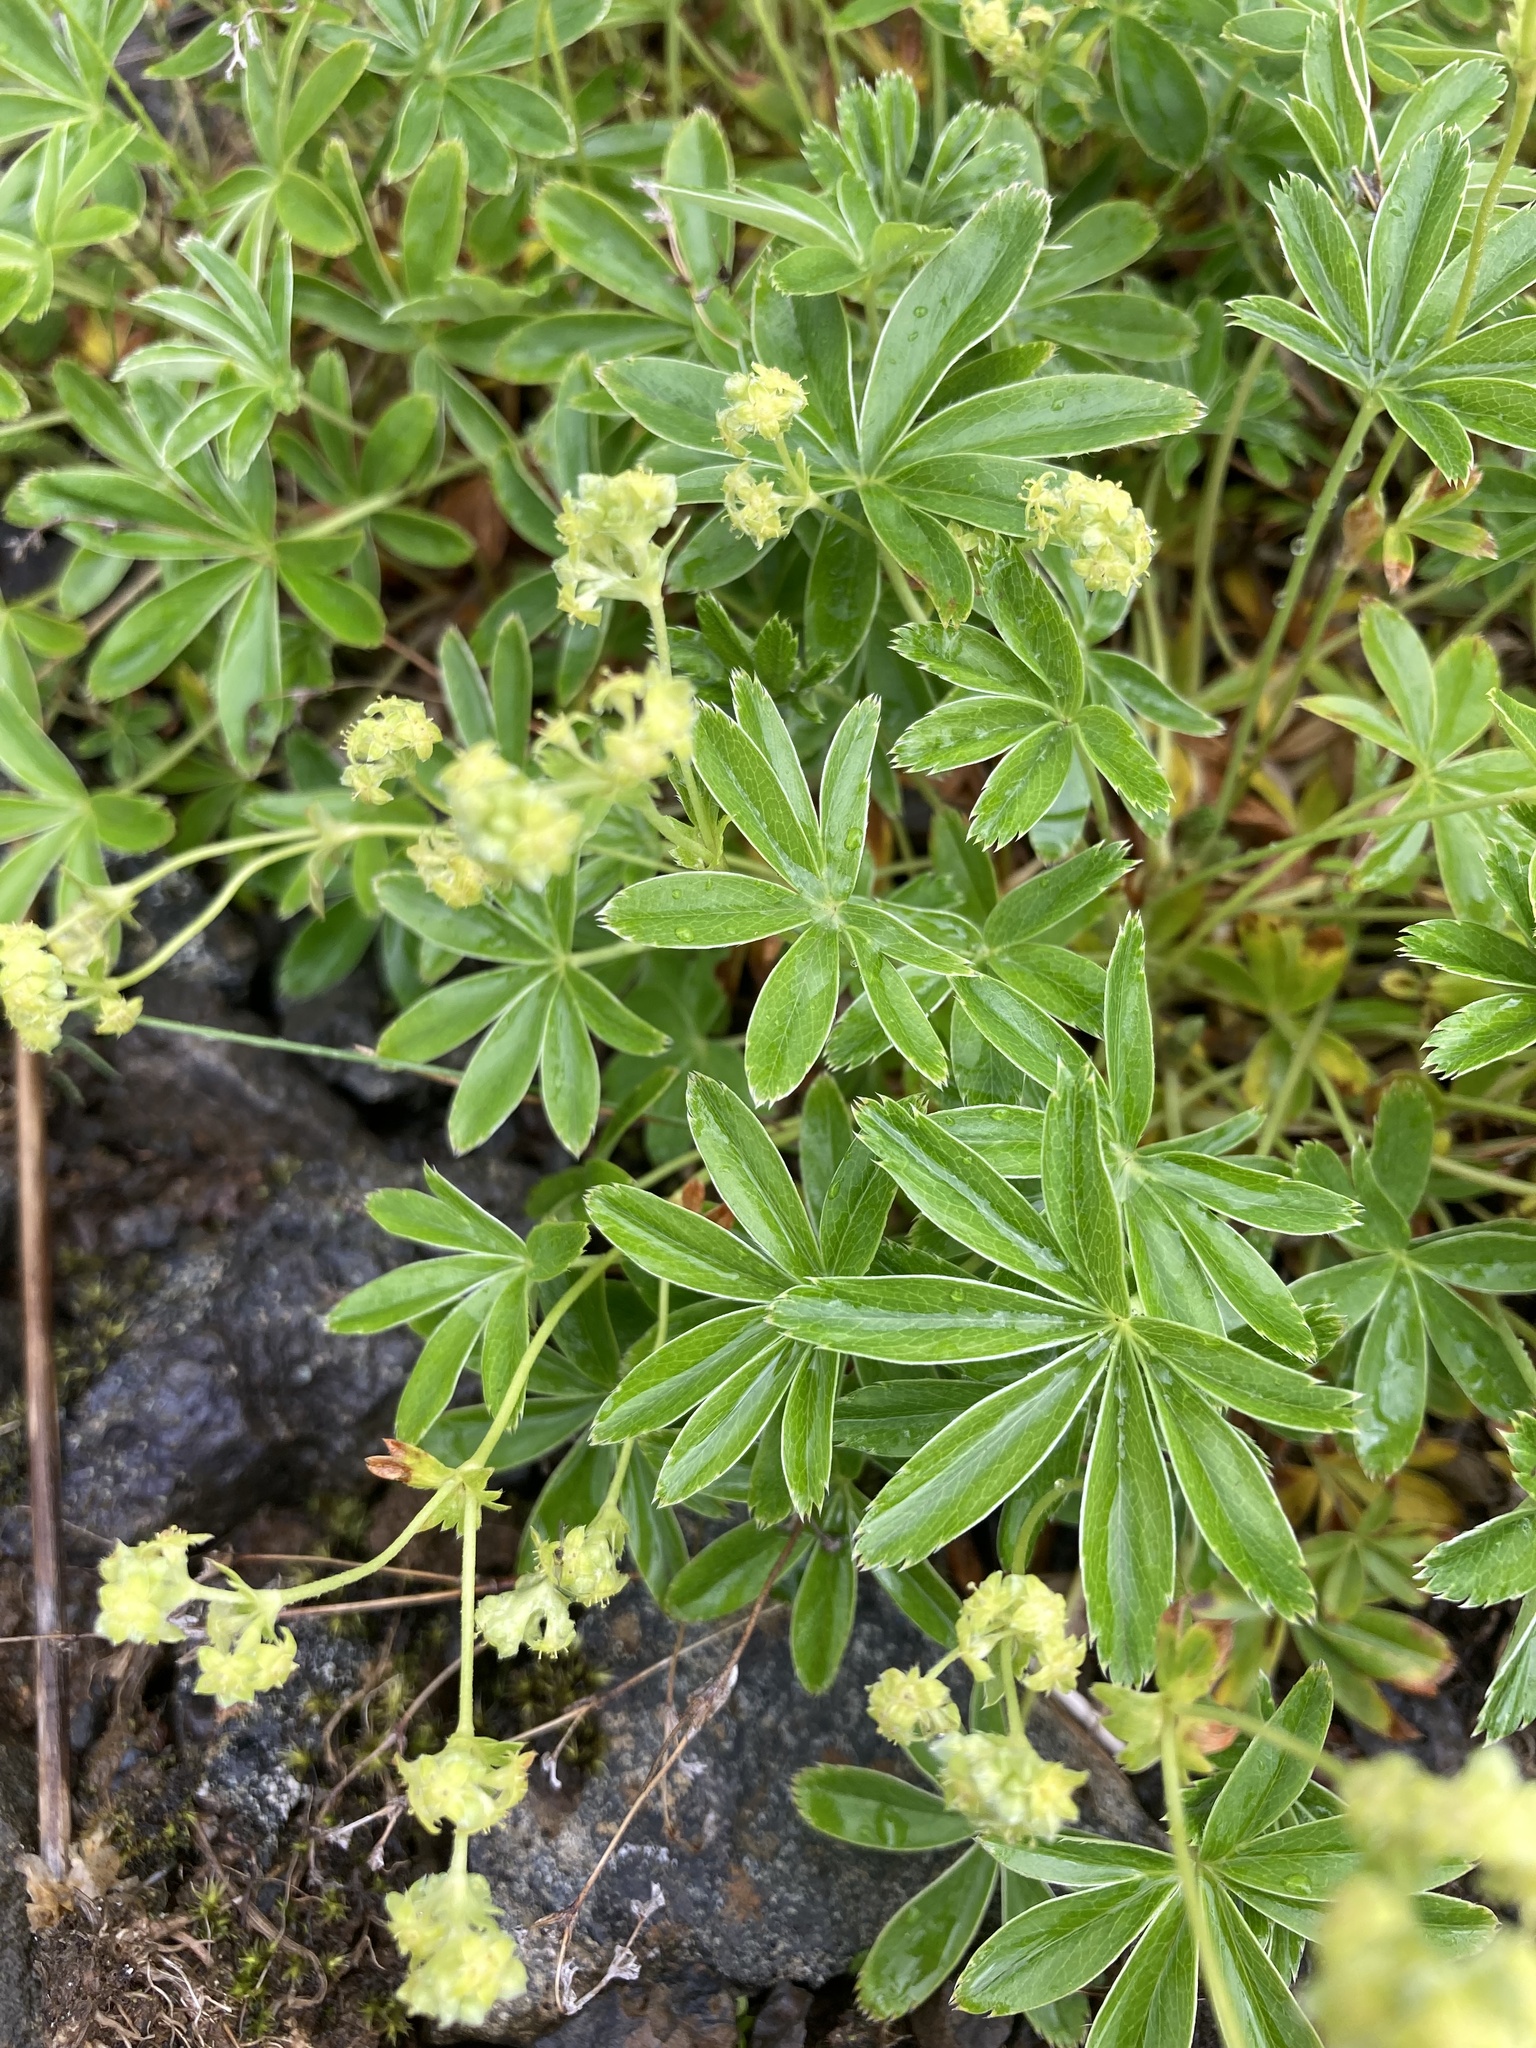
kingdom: Plantae
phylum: Tracheophyta
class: Magnoliopsida
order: Rosales
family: Rosaceae
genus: Alchemilla
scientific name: Alchemilla alpina
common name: Alpine lady's-mantle
